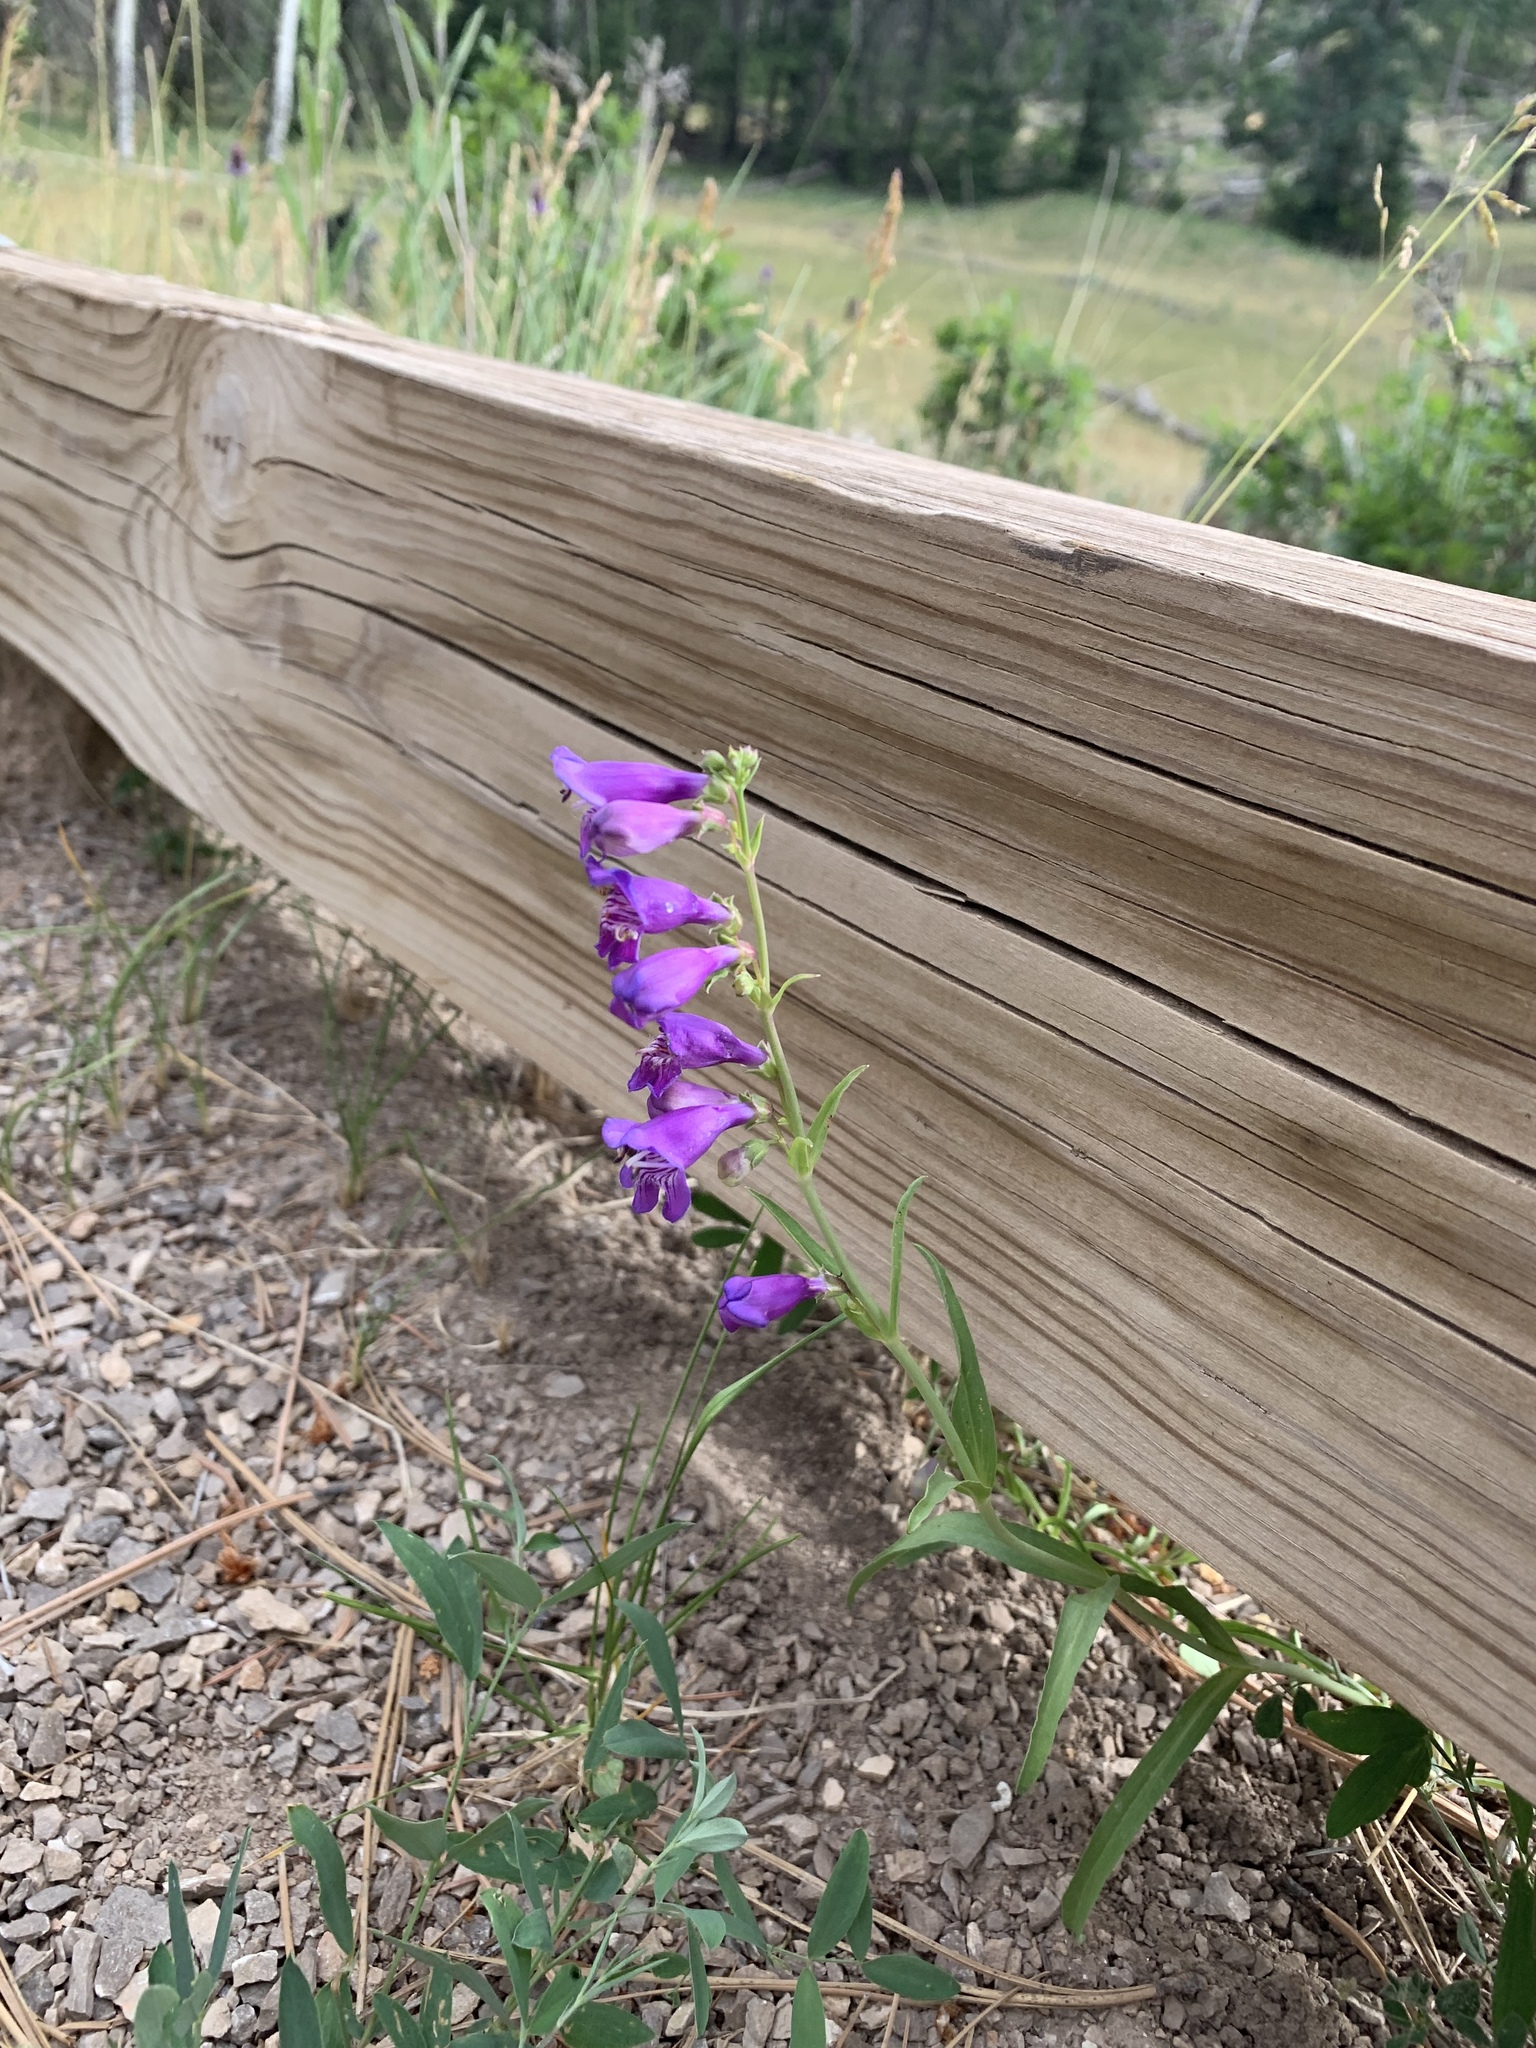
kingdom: Plantae
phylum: Tracheophyta
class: Magnoliopsida
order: Lamiales
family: Plantaginaceae
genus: Penstemon
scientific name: Penstemon neomexicanus
